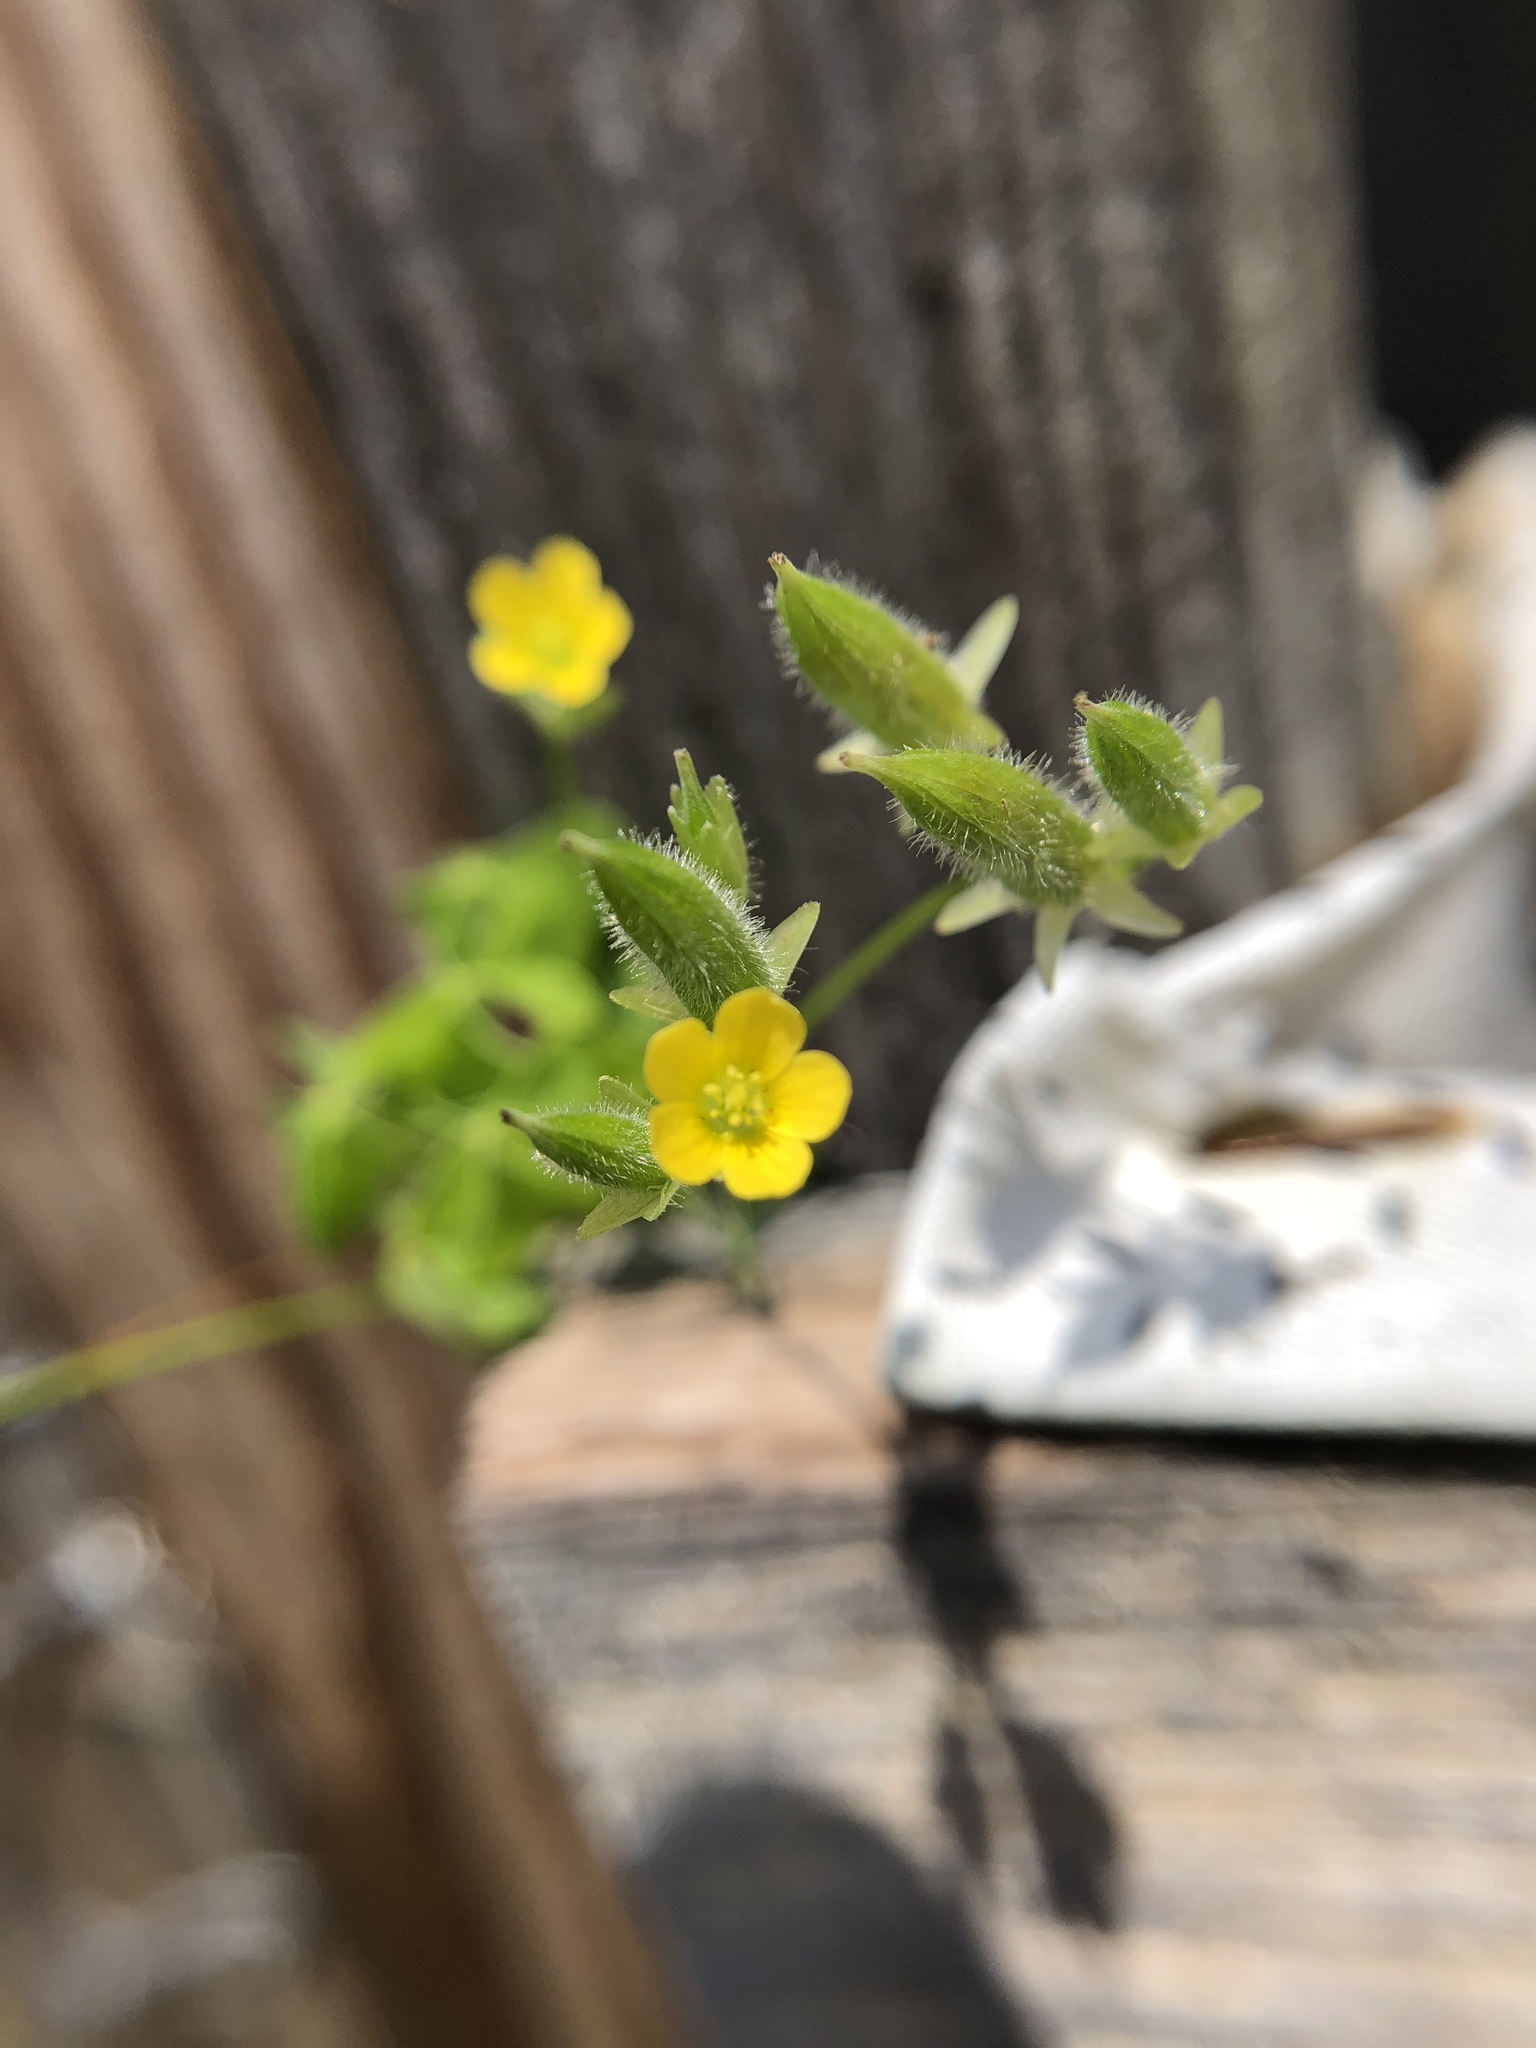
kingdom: Plantae
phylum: Tracheophyta
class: Magnoliopsida
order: Oxalidales
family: Oxalidaceae
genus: Oxalis
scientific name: Oxalis stricta
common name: Upright yellow-sorrel
